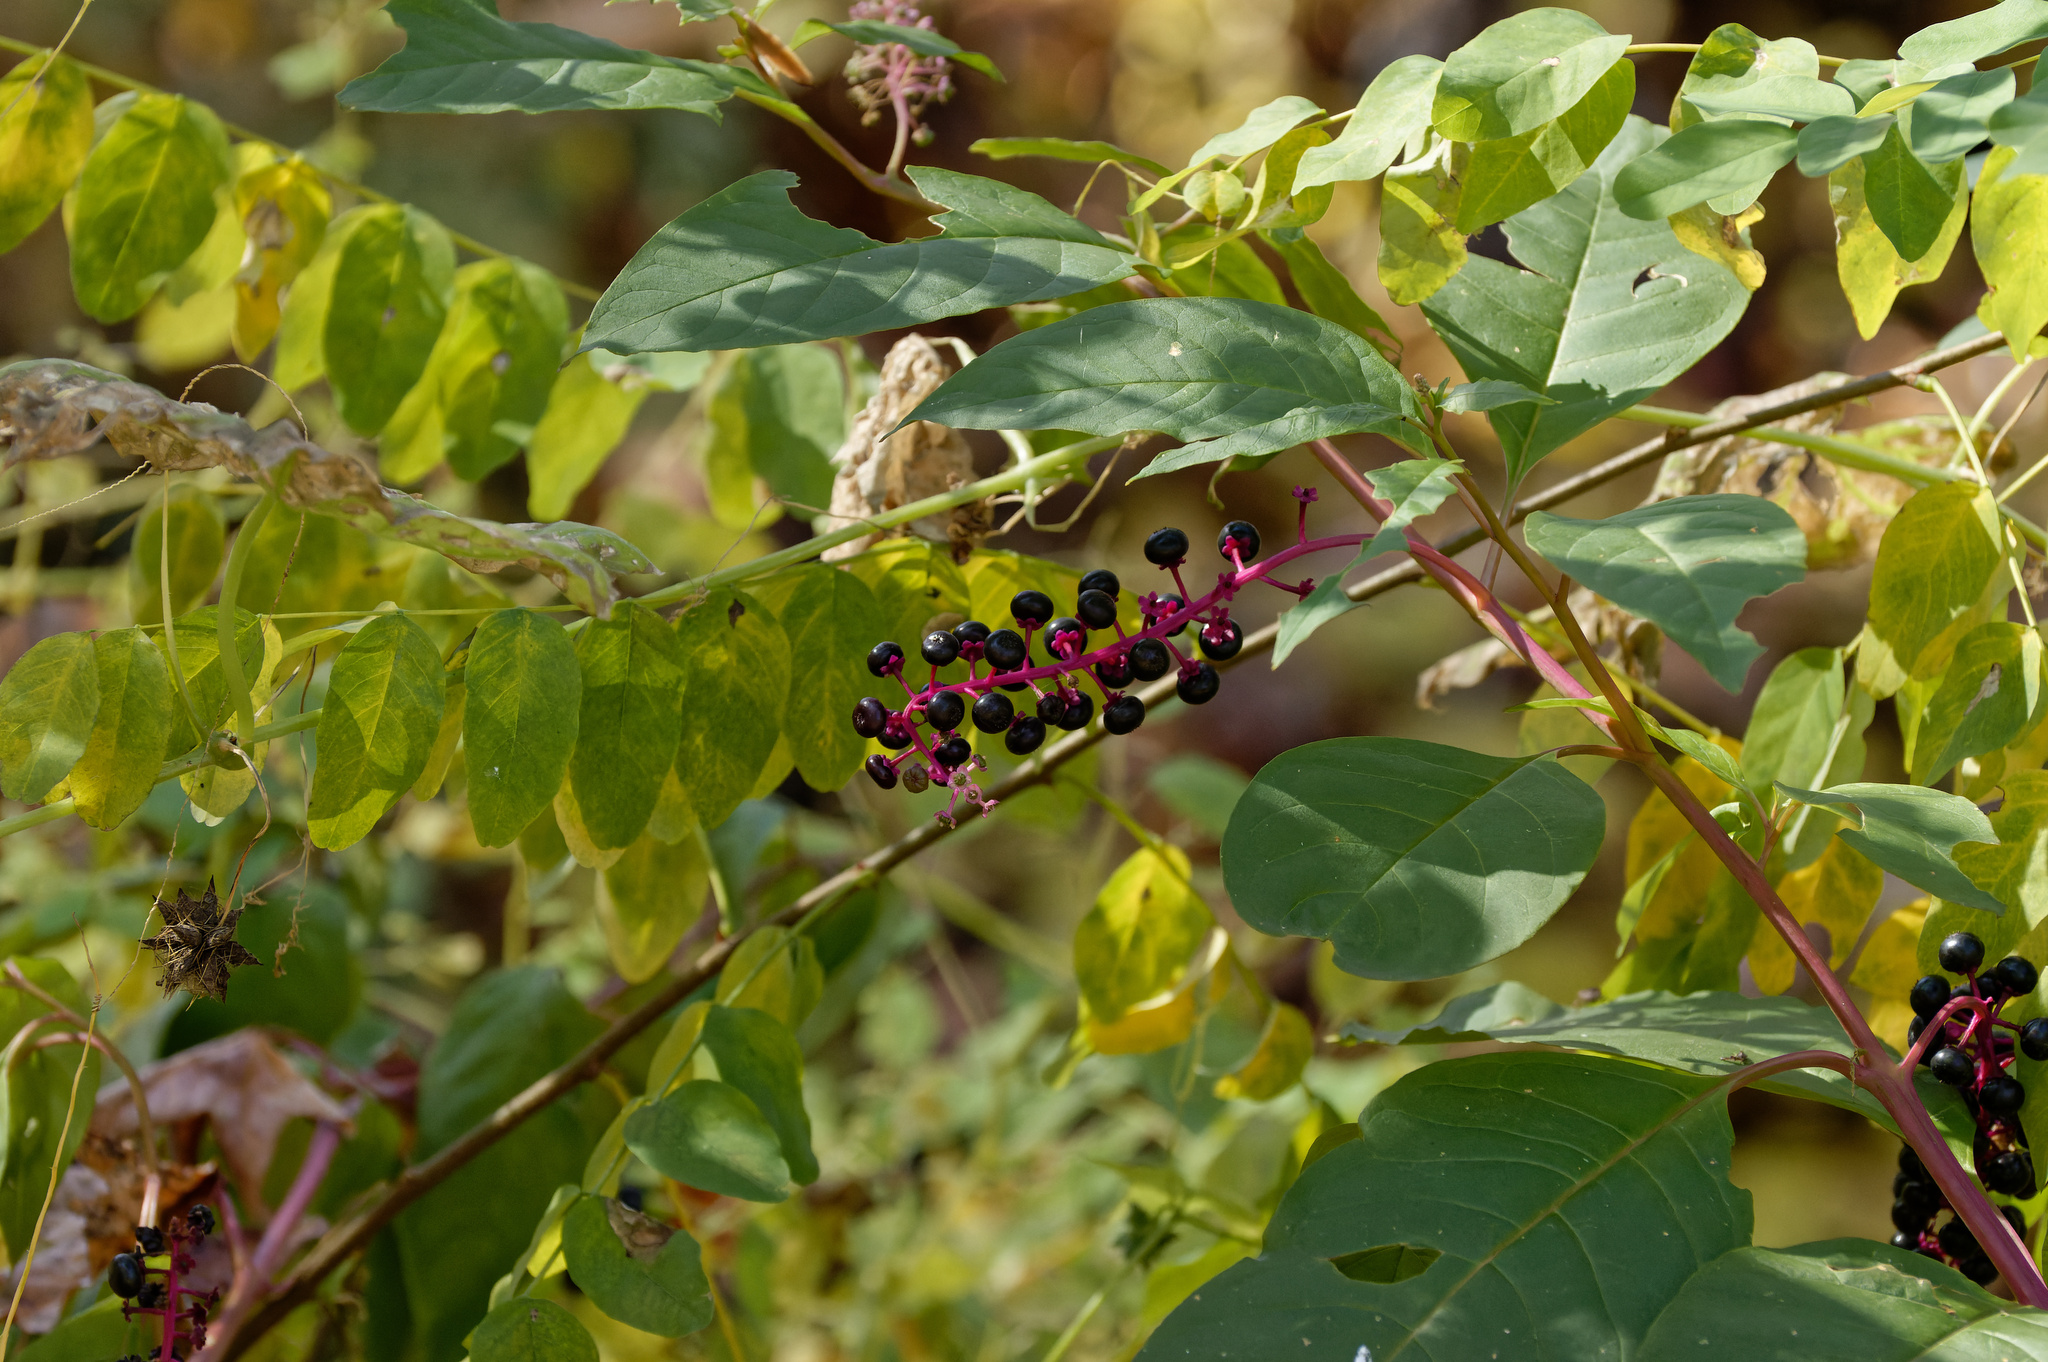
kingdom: Plantae
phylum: Tracheophyta
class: Magnoliopsida
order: Caryophyllales
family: Phytolaccaceae
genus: Phytolacca
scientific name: Phytolacca americana
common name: American pokeweed
